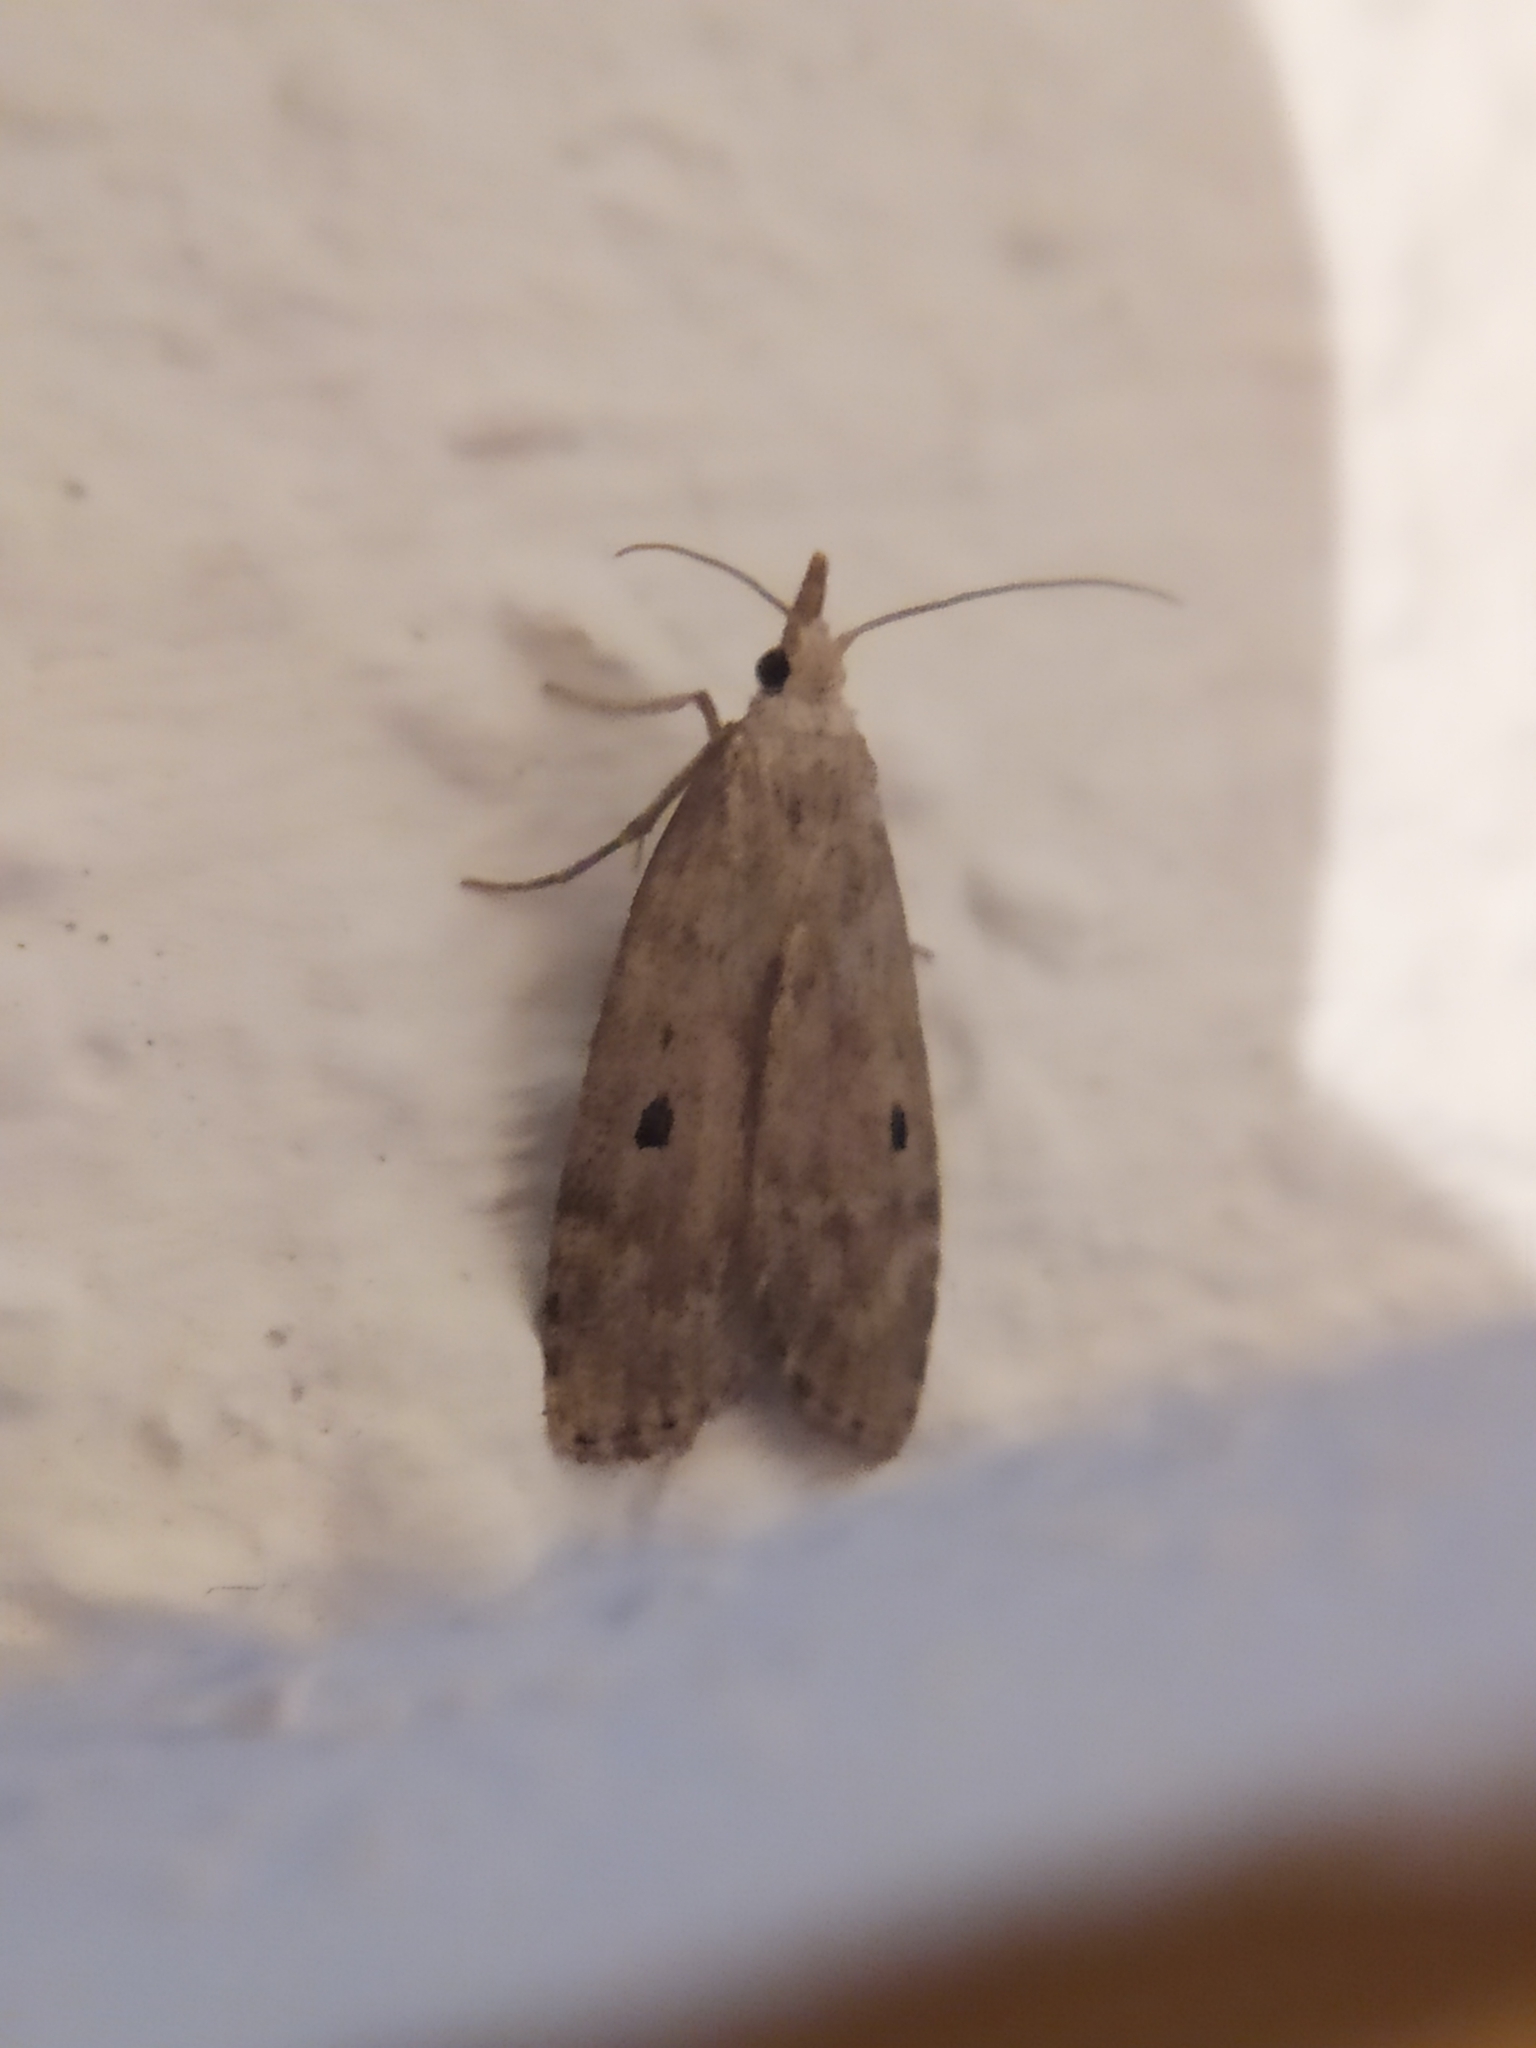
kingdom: Animalia
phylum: Arthropoda
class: Insecta
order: Lepidoptera
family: Pyralidae
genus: Aphomia
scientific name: Aphomia sociella
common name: Bee moth
